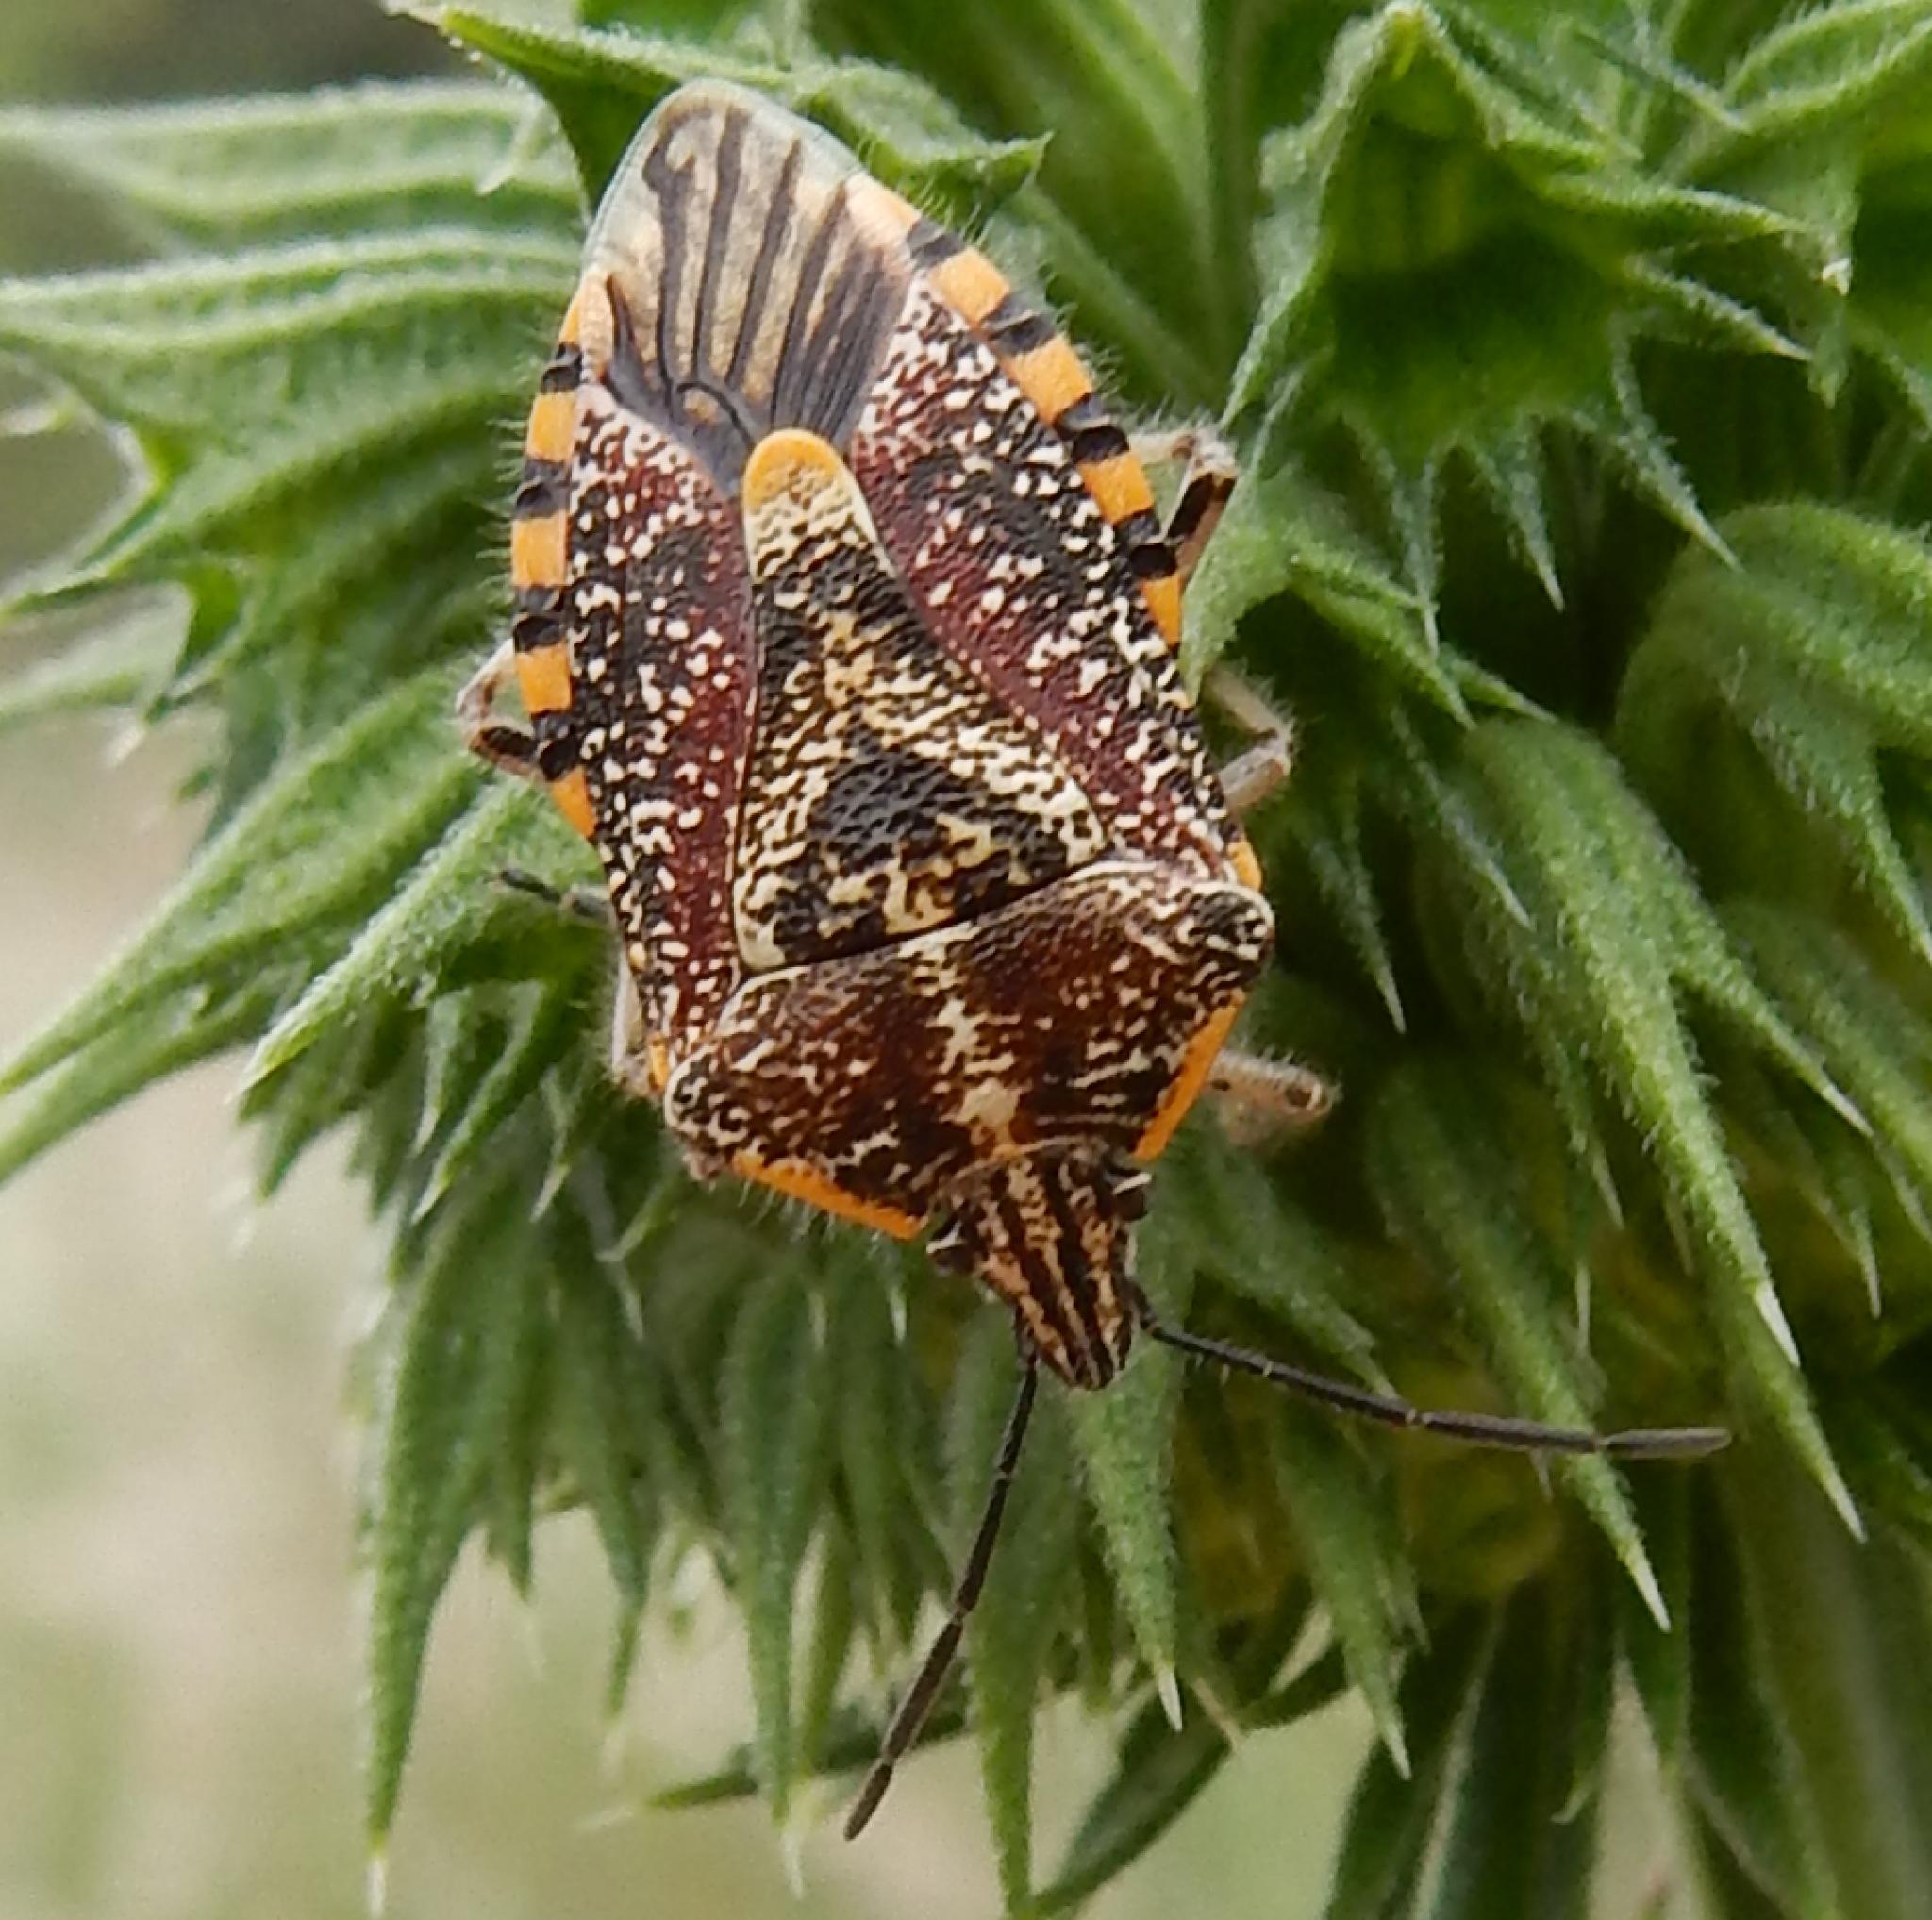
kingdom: Animalia
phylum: Arthropoda
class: Insecta
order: Hemiptera
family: Pentatomidae
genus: Agonoscelis
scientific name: Agonoscelis versicoloratus
